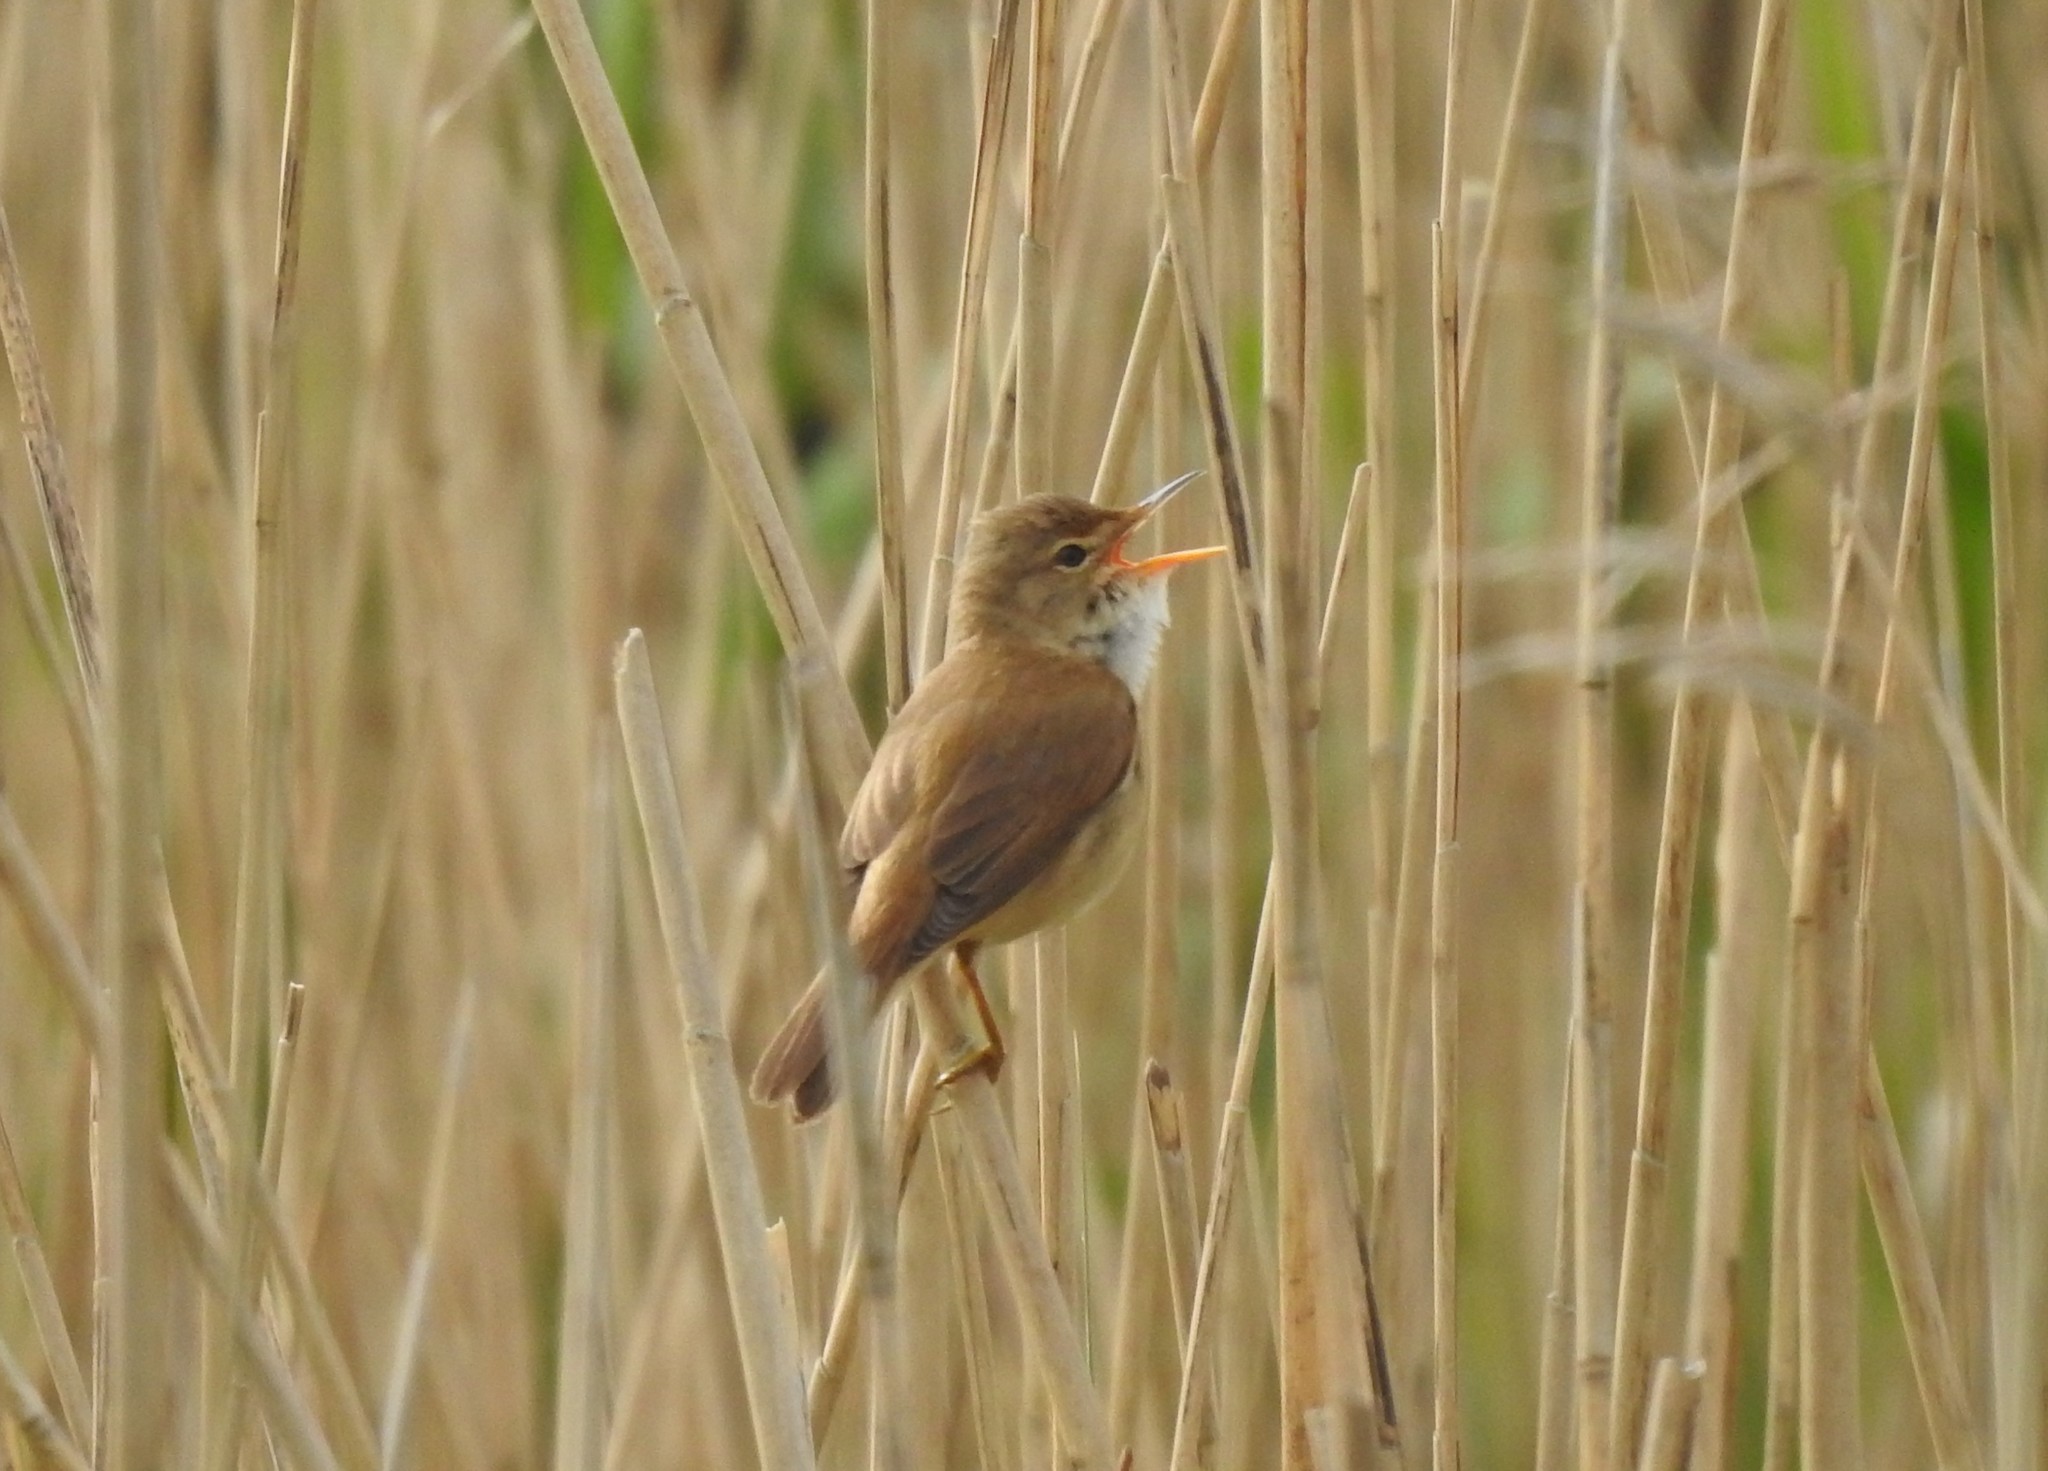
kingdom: Animalia
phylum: Chordata
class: Aves
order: Passeriformes
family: Acrocephalidae
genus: Acrocephalus
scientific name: Acrocephalus scirpaceus
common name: Eurasian reed warbler
